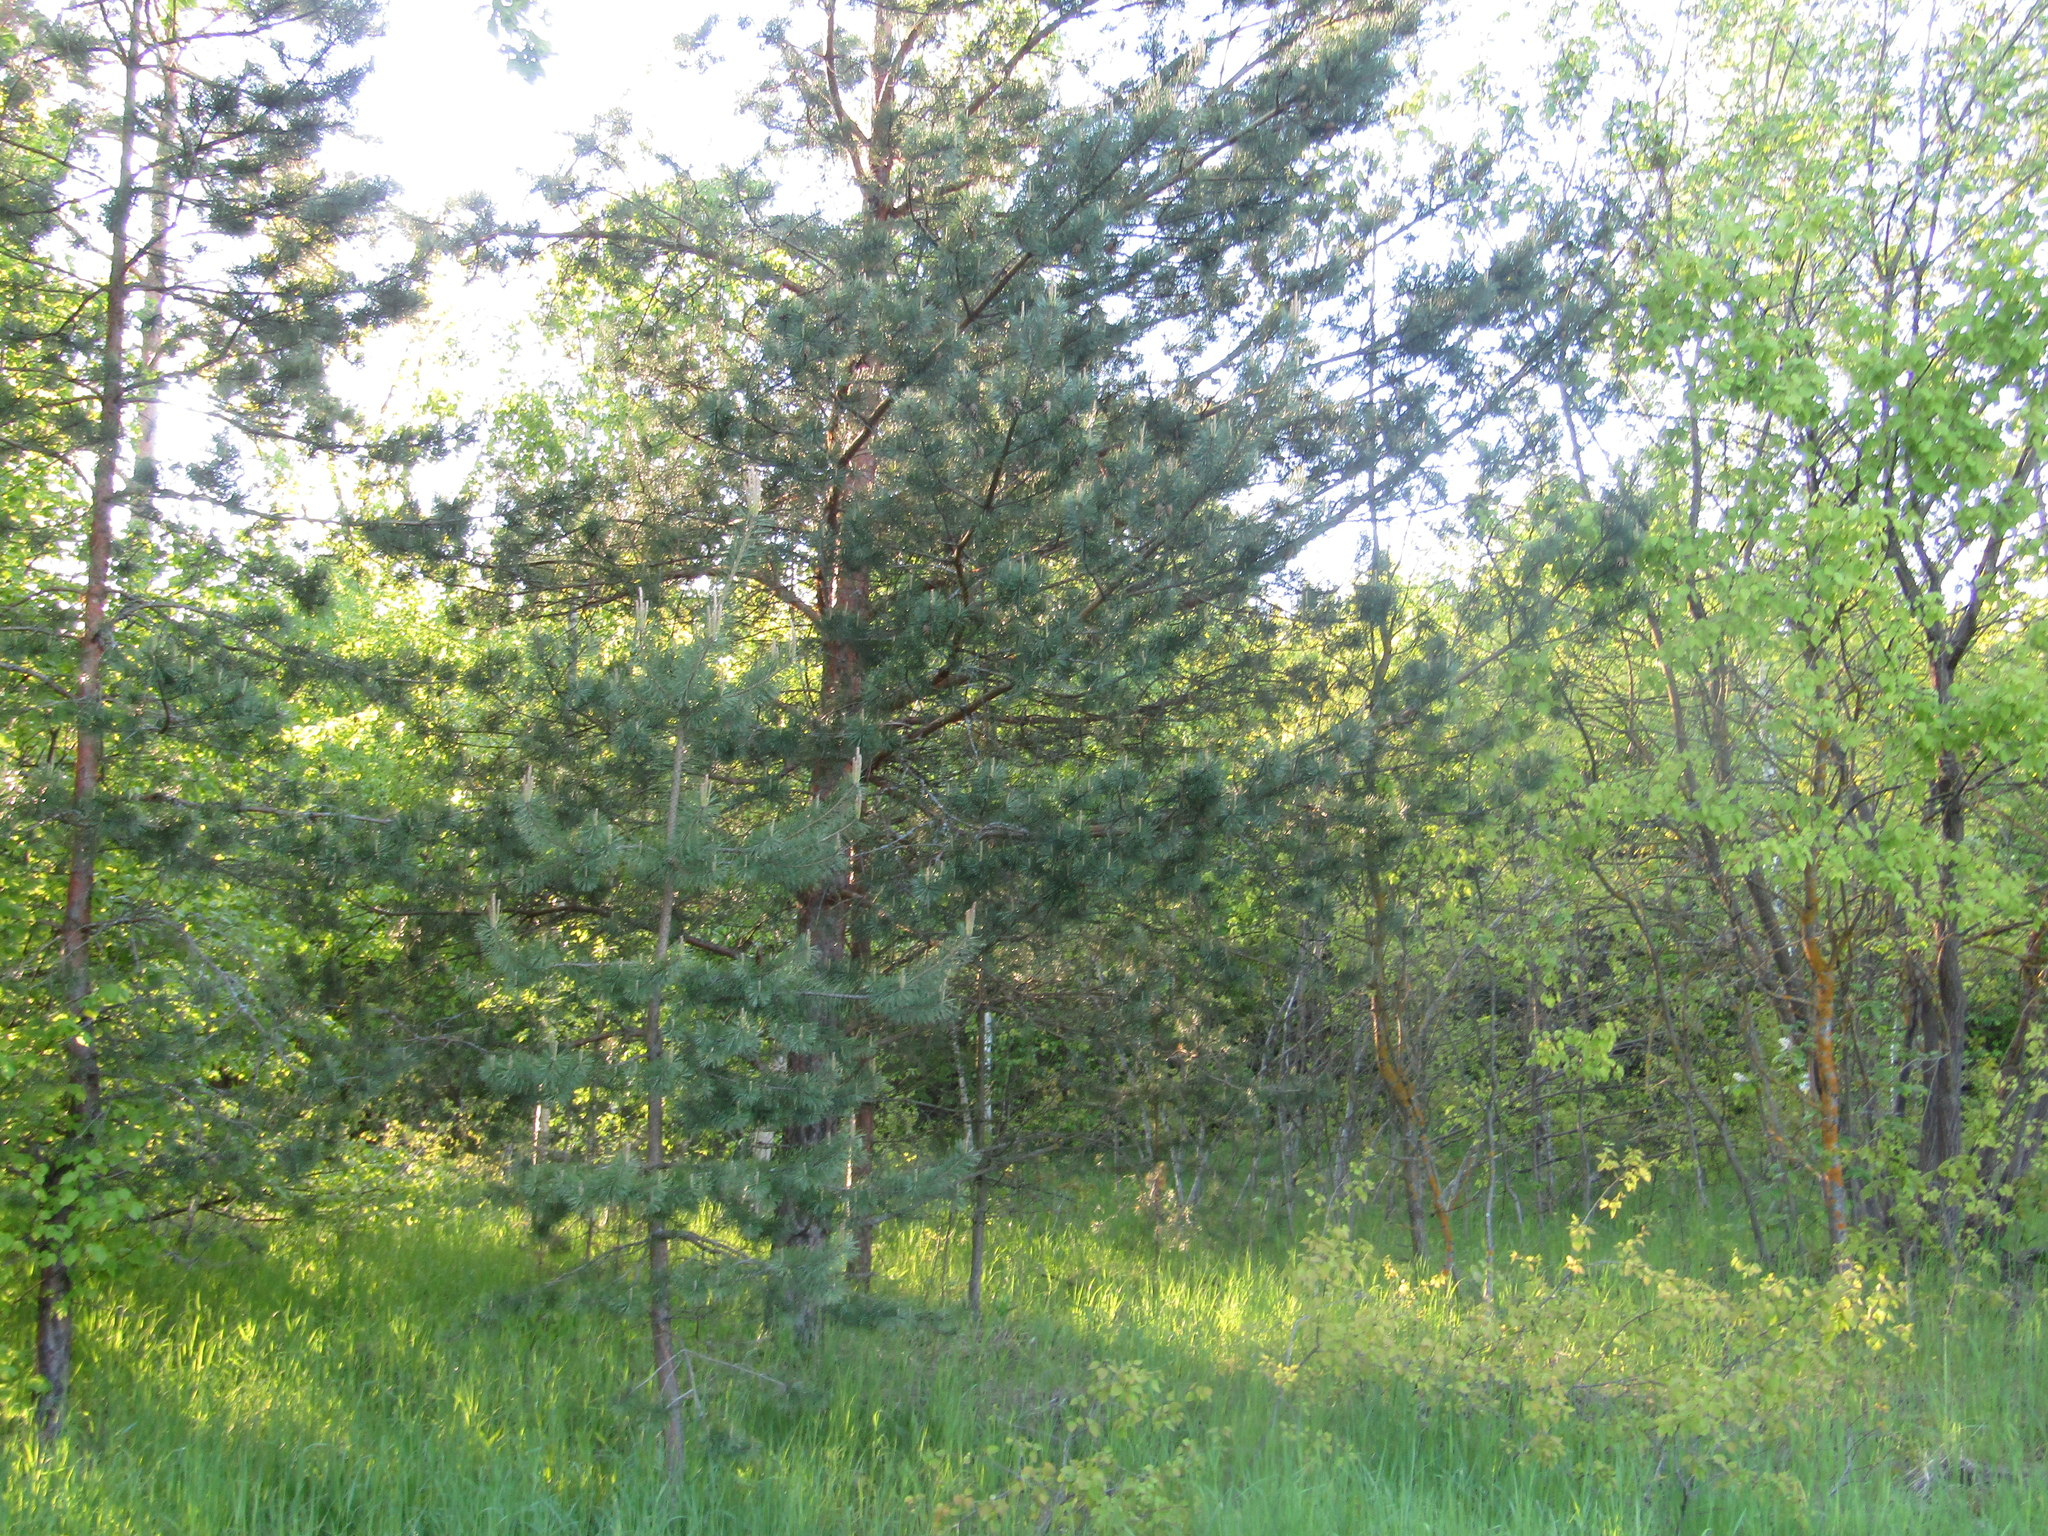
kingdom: Plantae
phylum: Tracheophyta
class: Pinopsida
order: Pinales
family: Pinaceae
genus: Pinus
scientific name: Pinus sylvestris
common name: Scots pine
